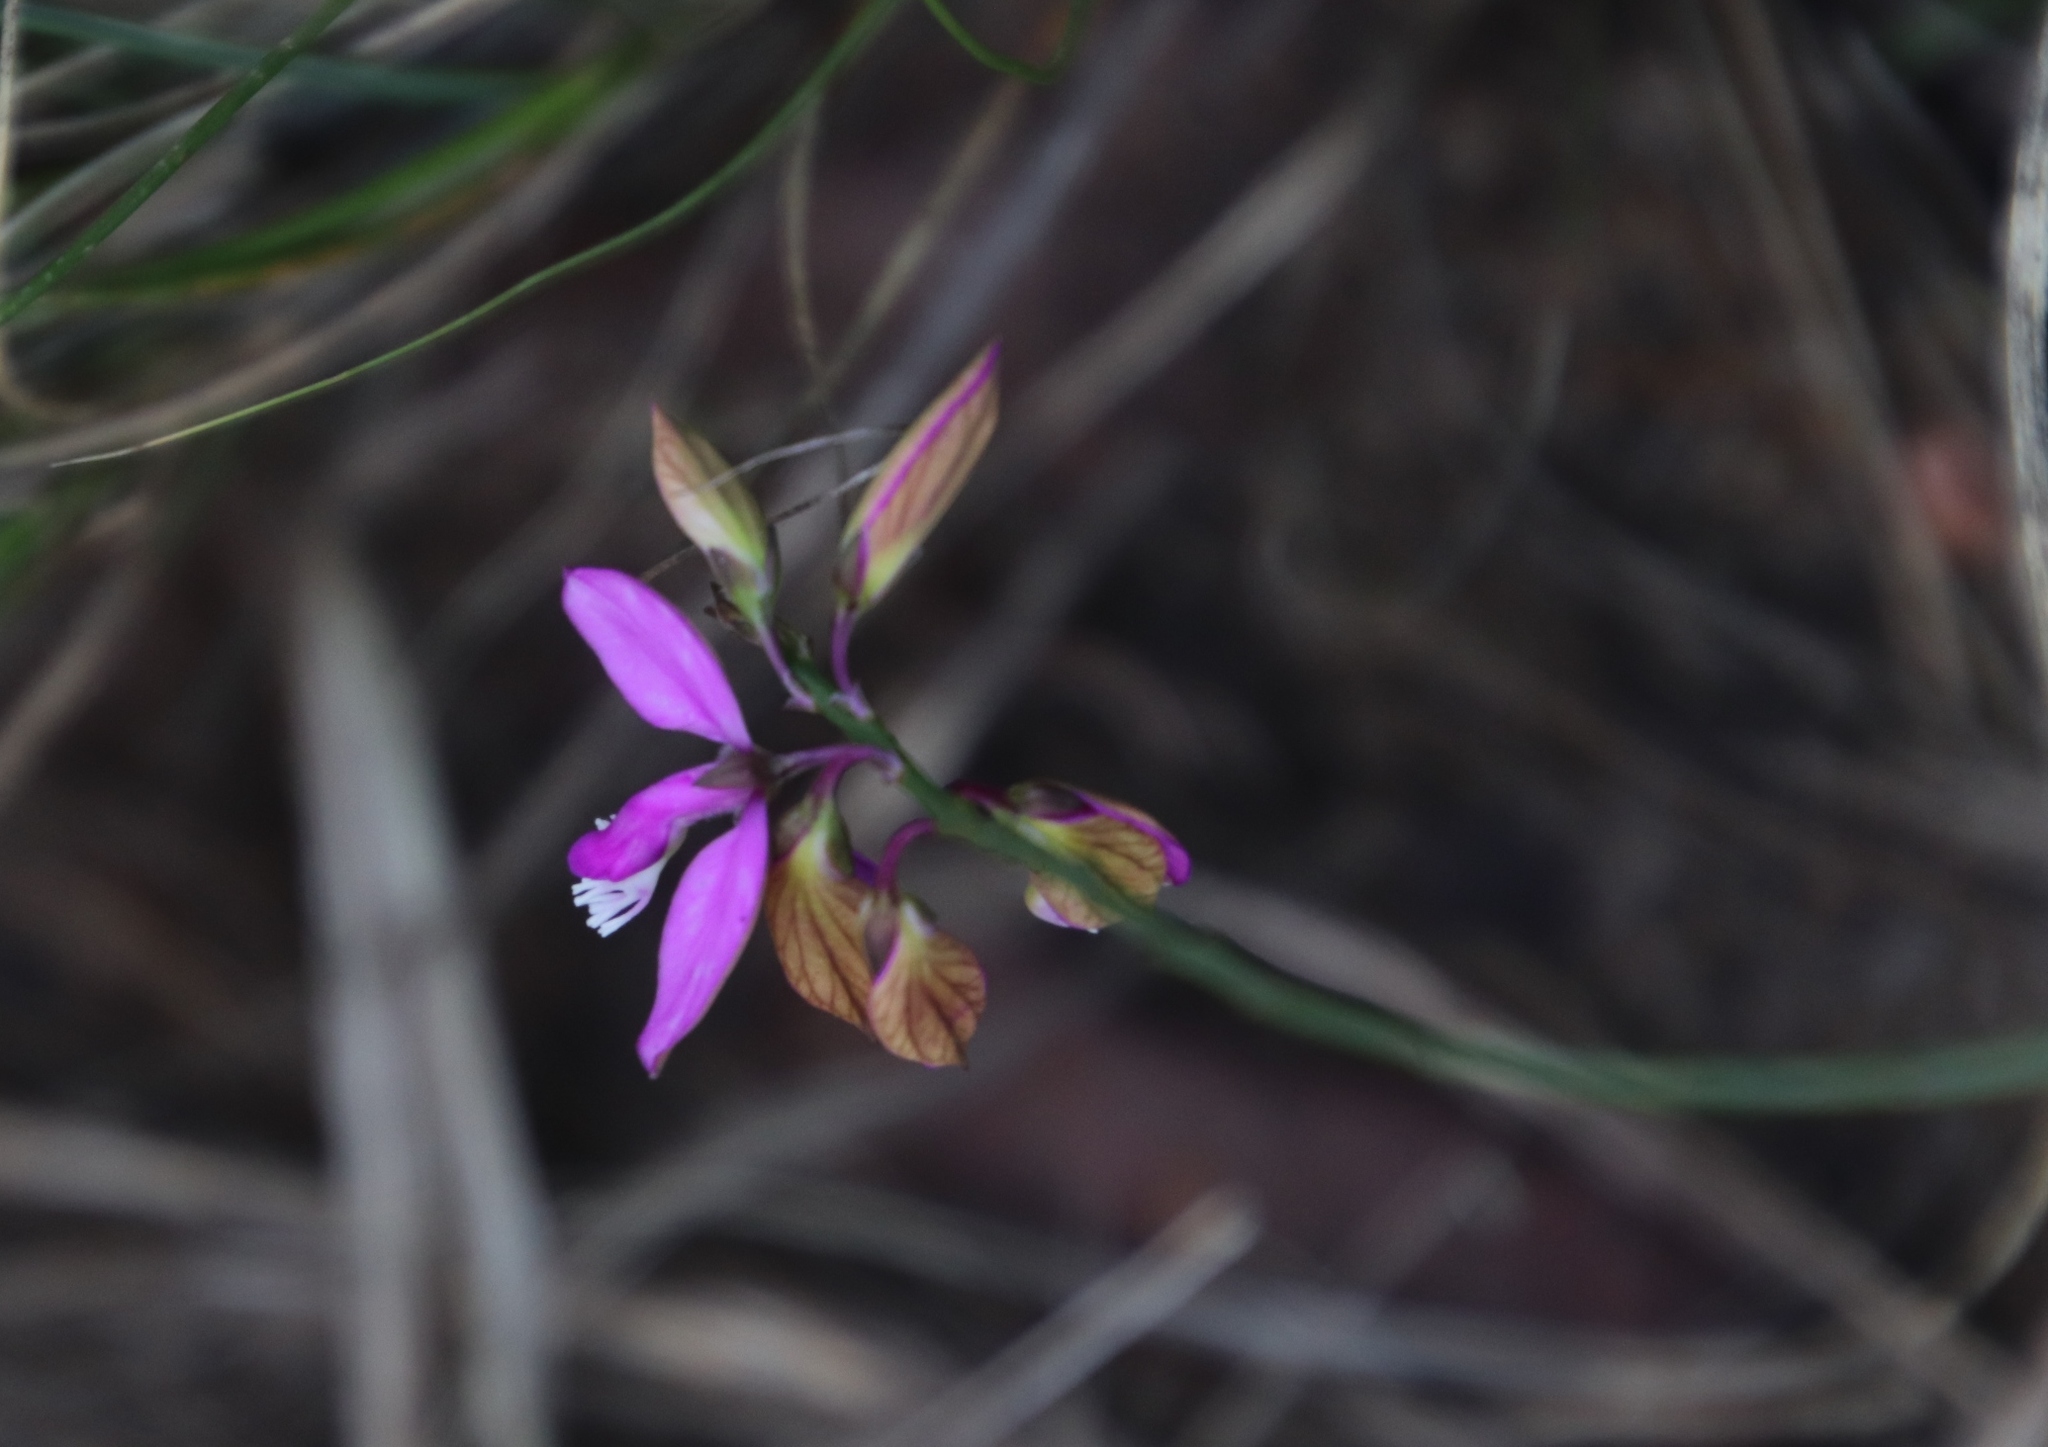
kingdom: Plantae
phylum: Tracheophyta
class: Magnoliopsida
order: Fabales
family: Polygalaceae
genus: Polygala
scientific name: Polygala garcini
